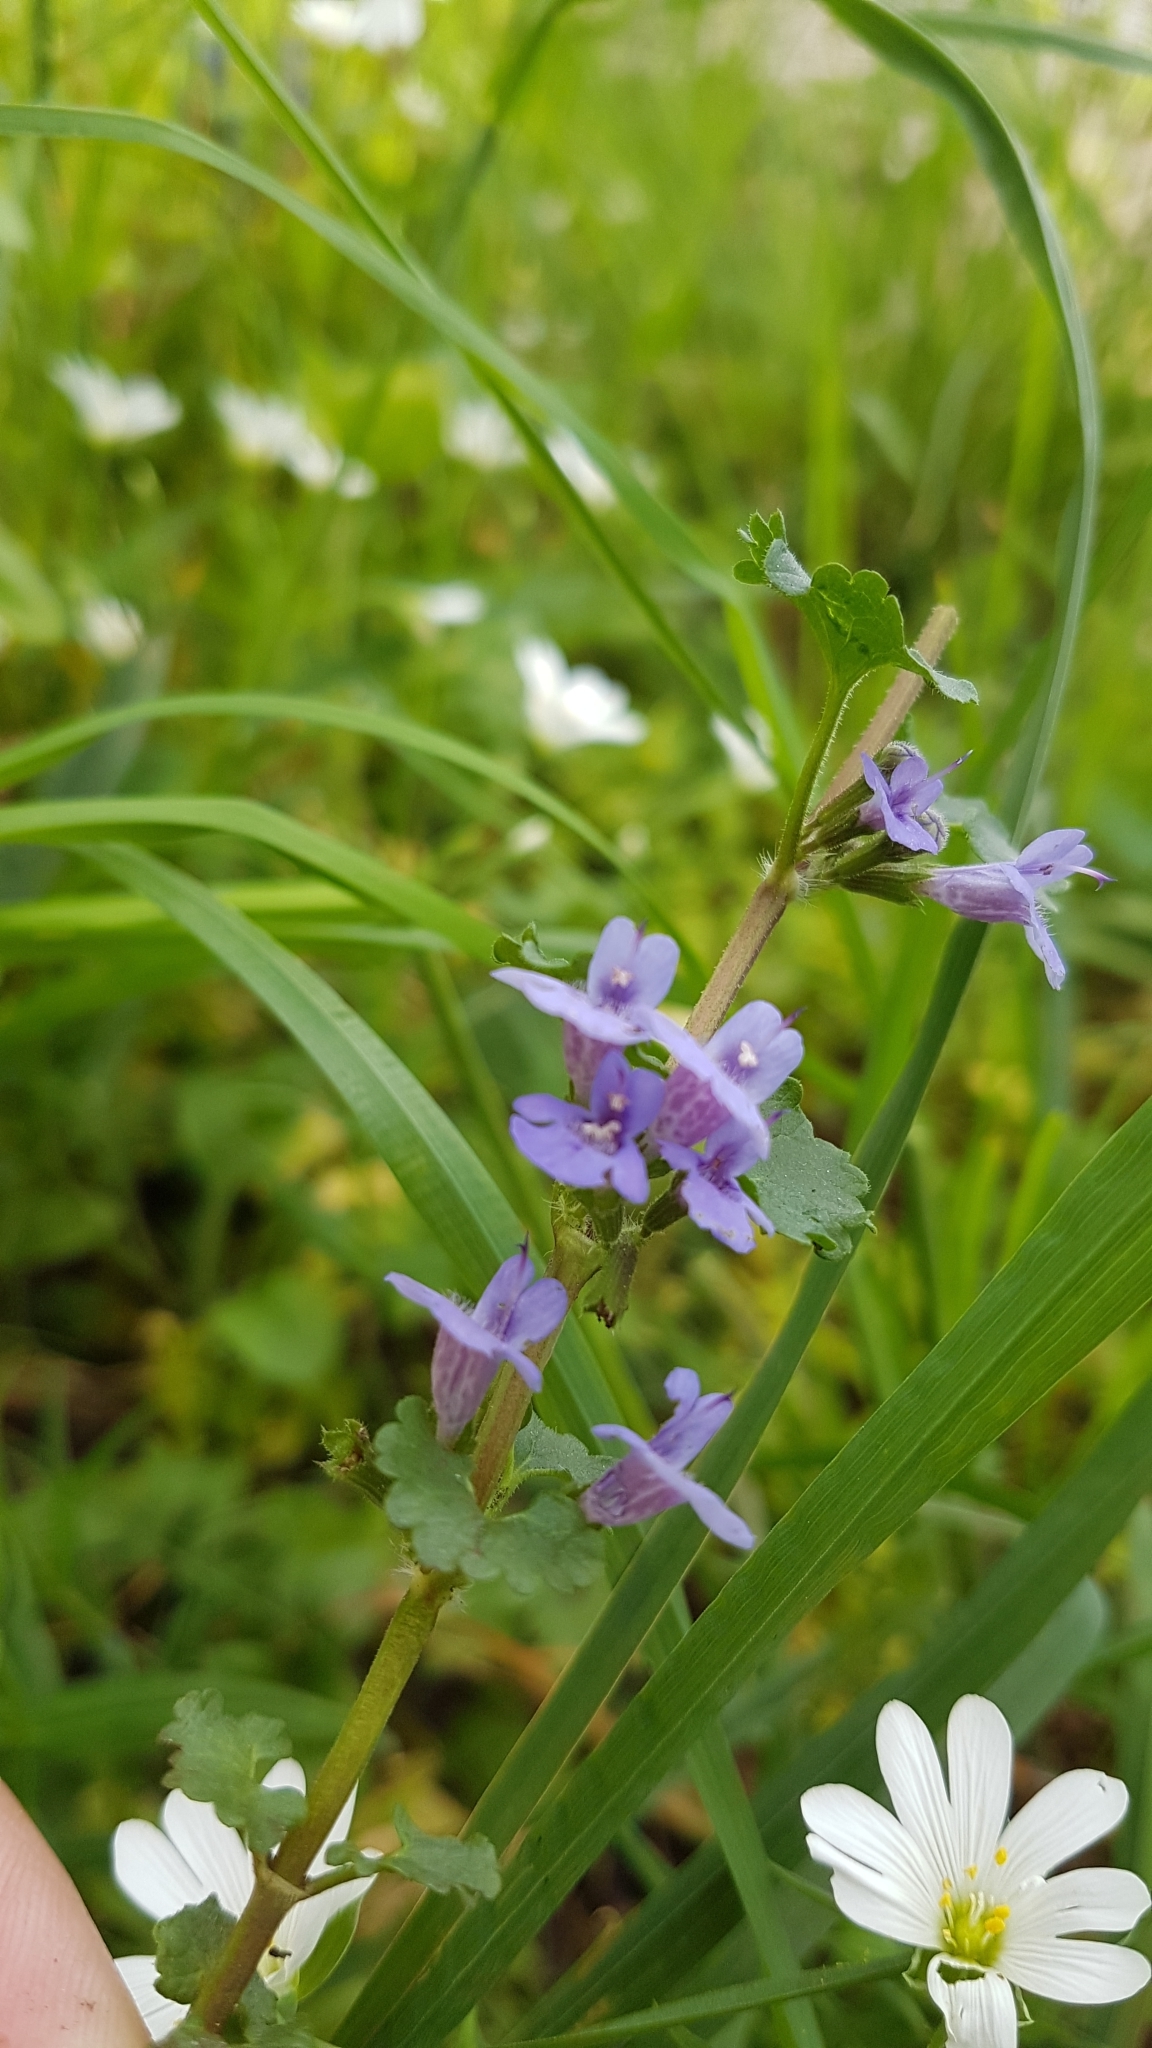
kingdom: Plantae
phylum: Tracheophyta
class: Magnoliopsida
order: Lamiales
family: Lamiaceae
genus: Glechoma
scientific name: Glechoma hederacea
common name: Ground ivy
